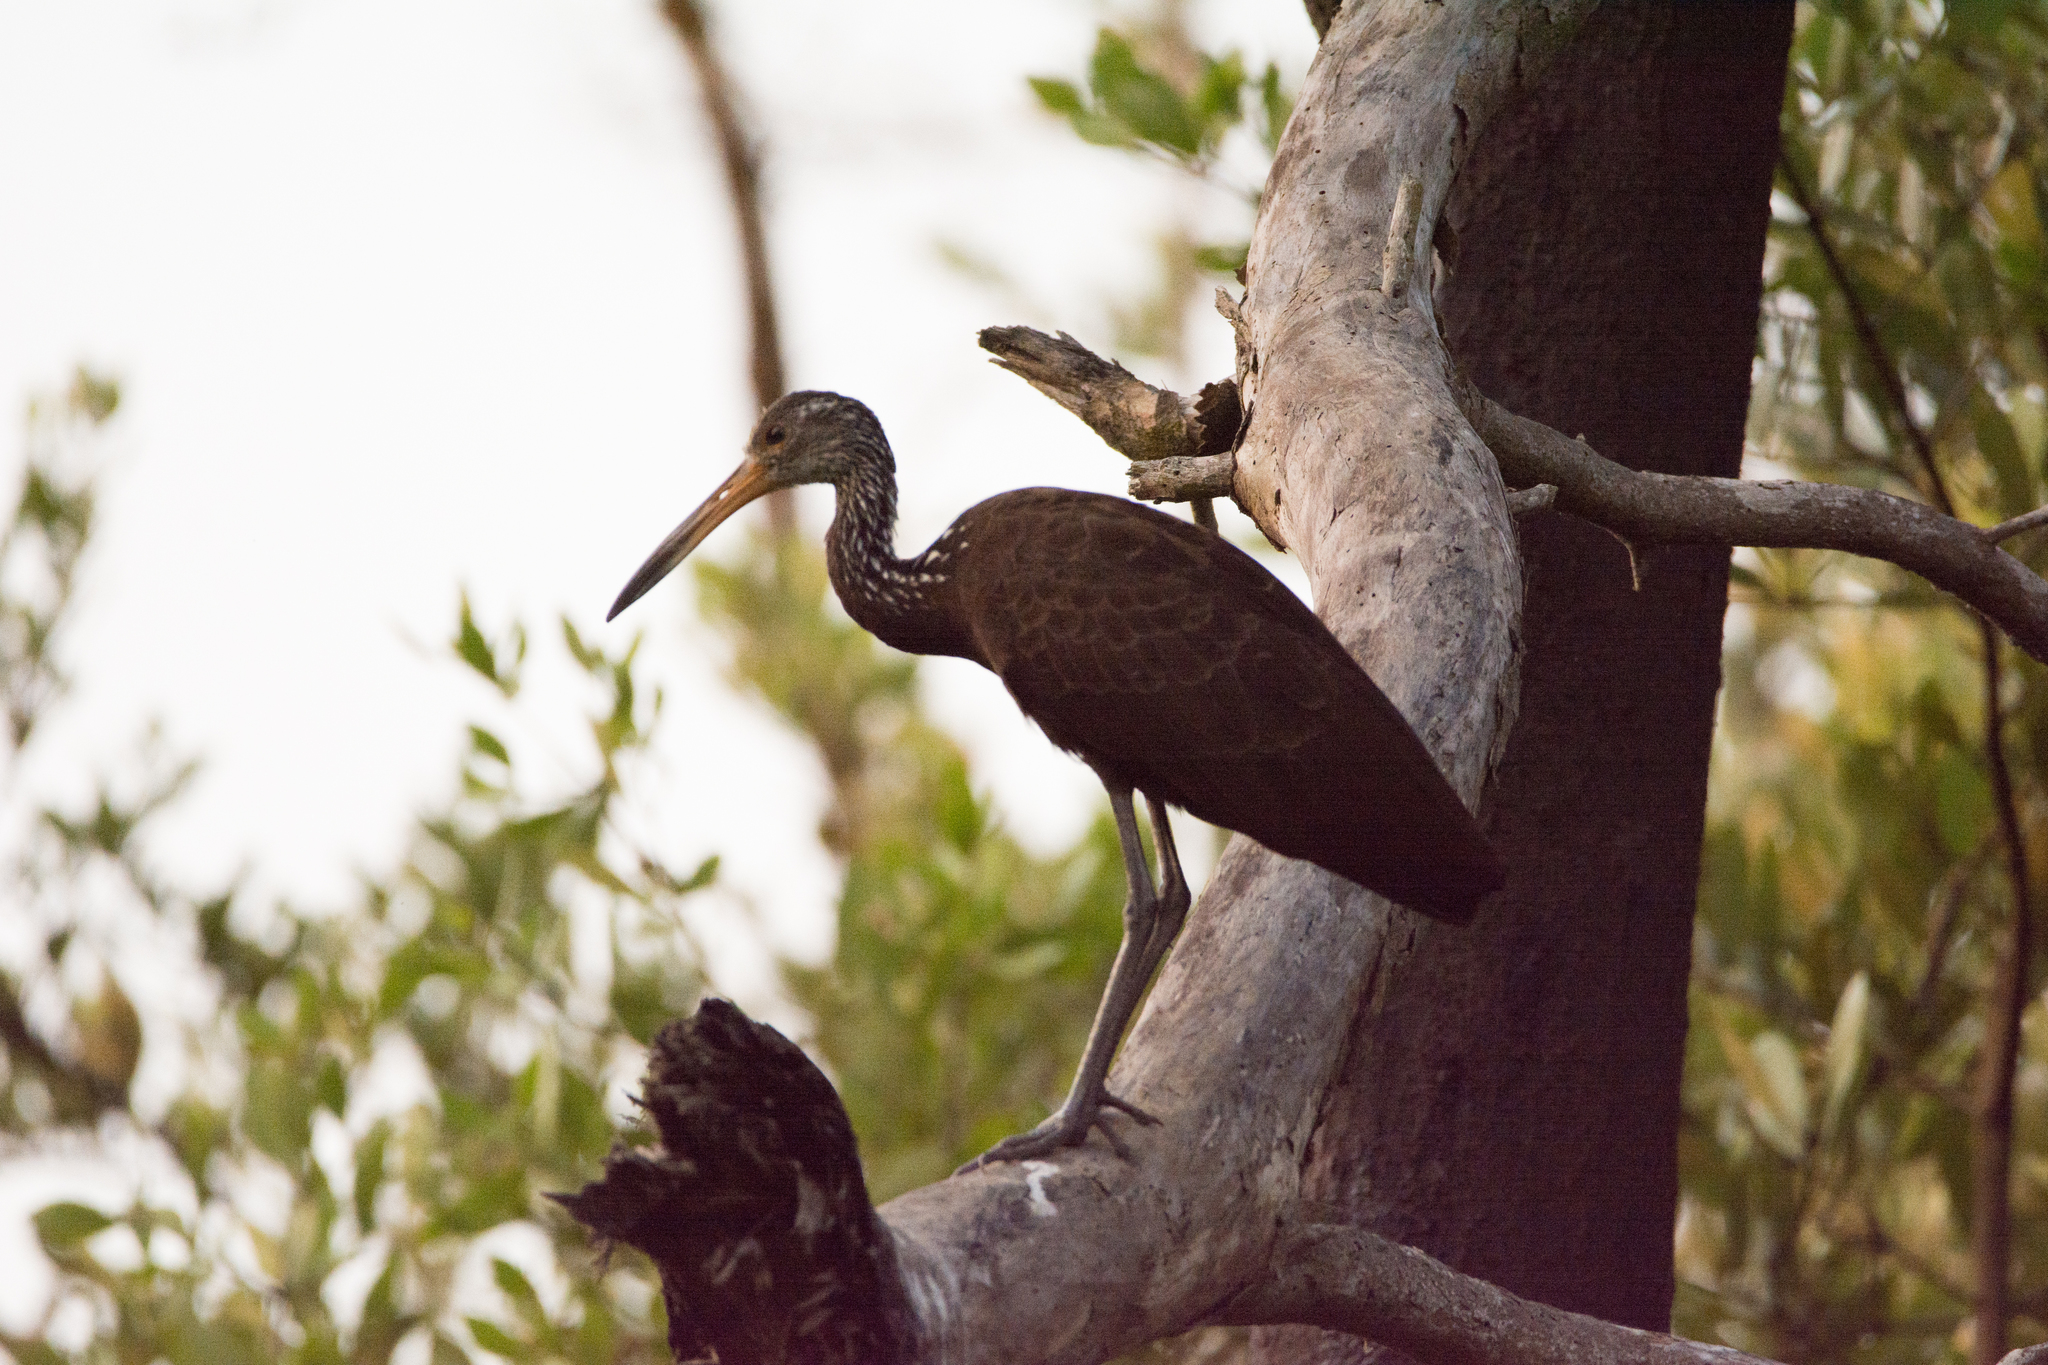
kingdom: Animalia
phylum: Chordata
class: Aves
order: Gruiformes
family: Aramidae
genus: Aramus
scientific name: Aramus guarauna
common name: Limpkin
